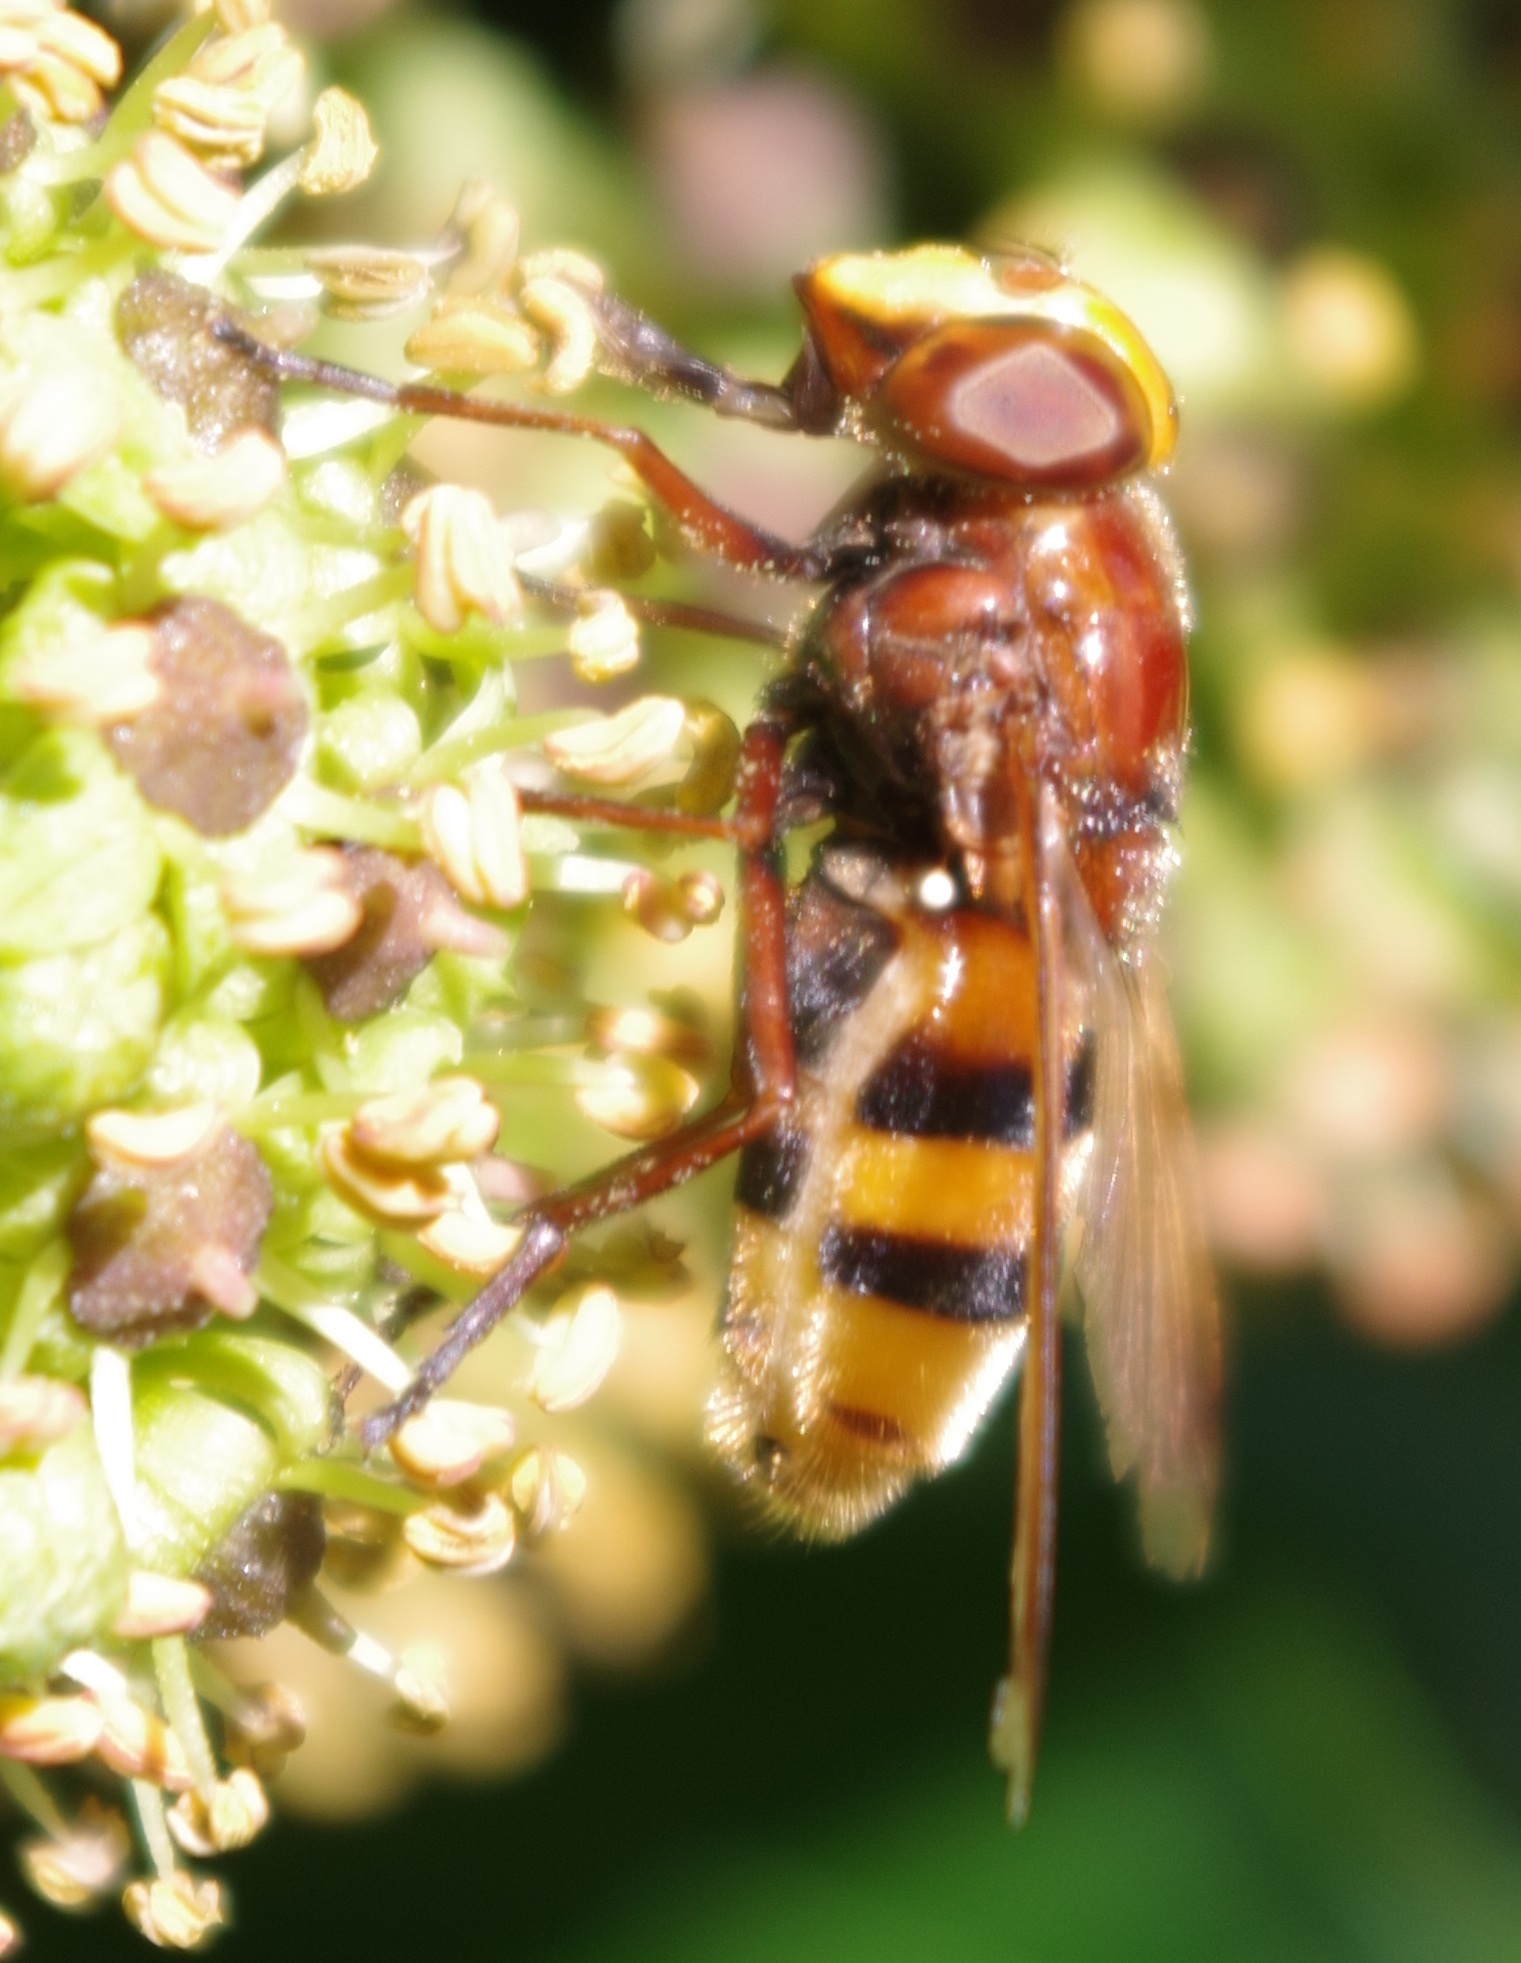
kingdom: Animalia
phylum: Arthropoda
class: Insecta
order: Diptera
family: Syrphidae
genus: Volucella
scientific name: Volucella zonaria
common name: Hornet hoverfly
